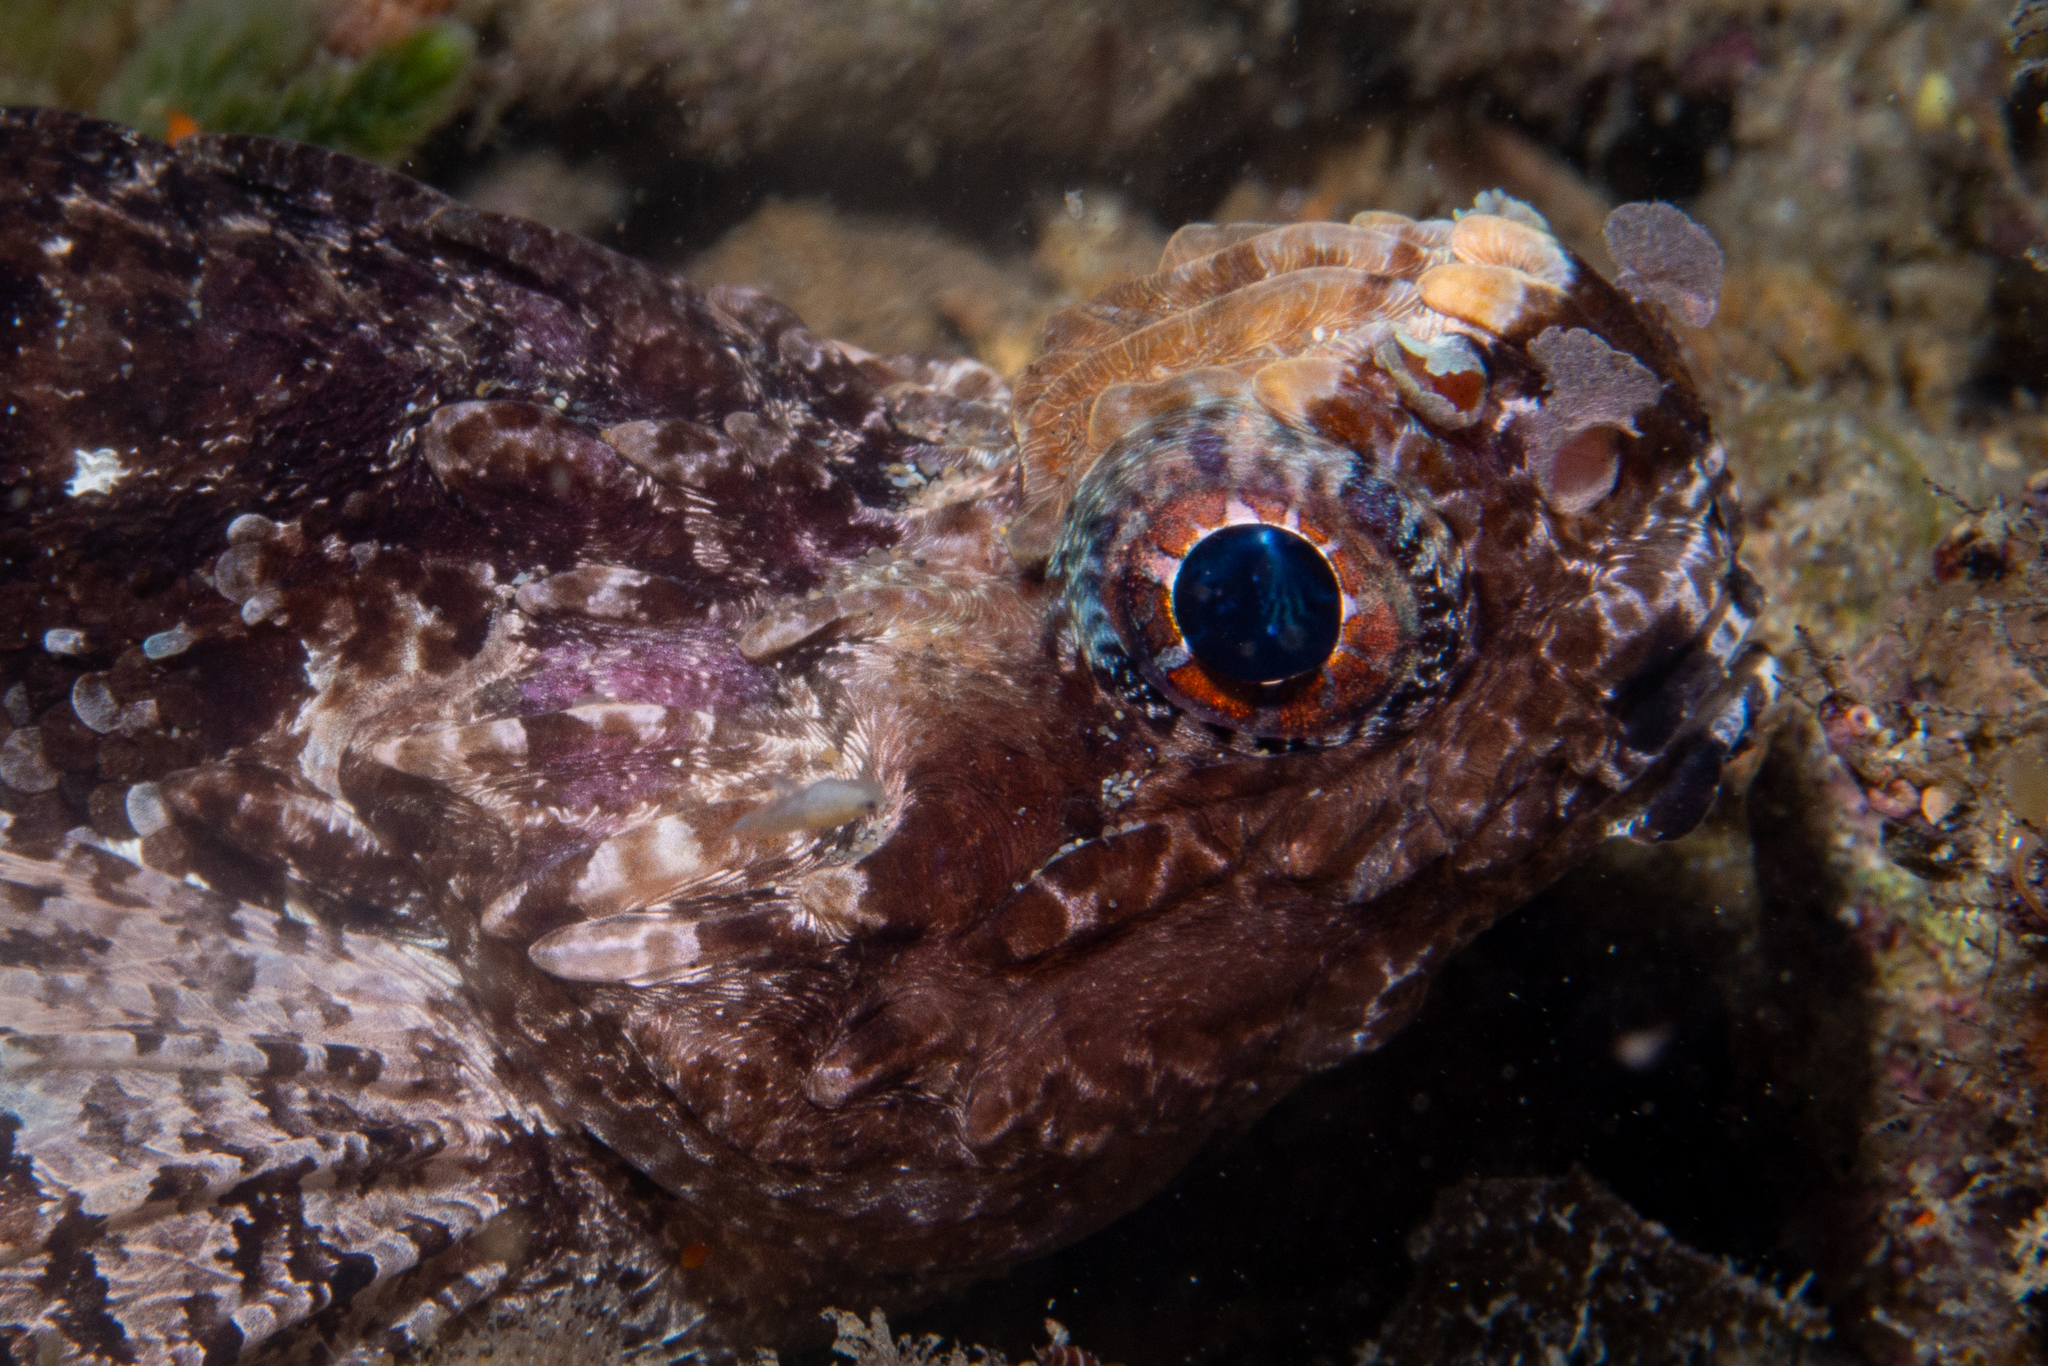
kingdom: Animalia
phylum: Chordata
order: Scorpaeniformes
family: Tetrarogidae
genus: Glyptauchen
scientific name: Glyptauchen panduratus
